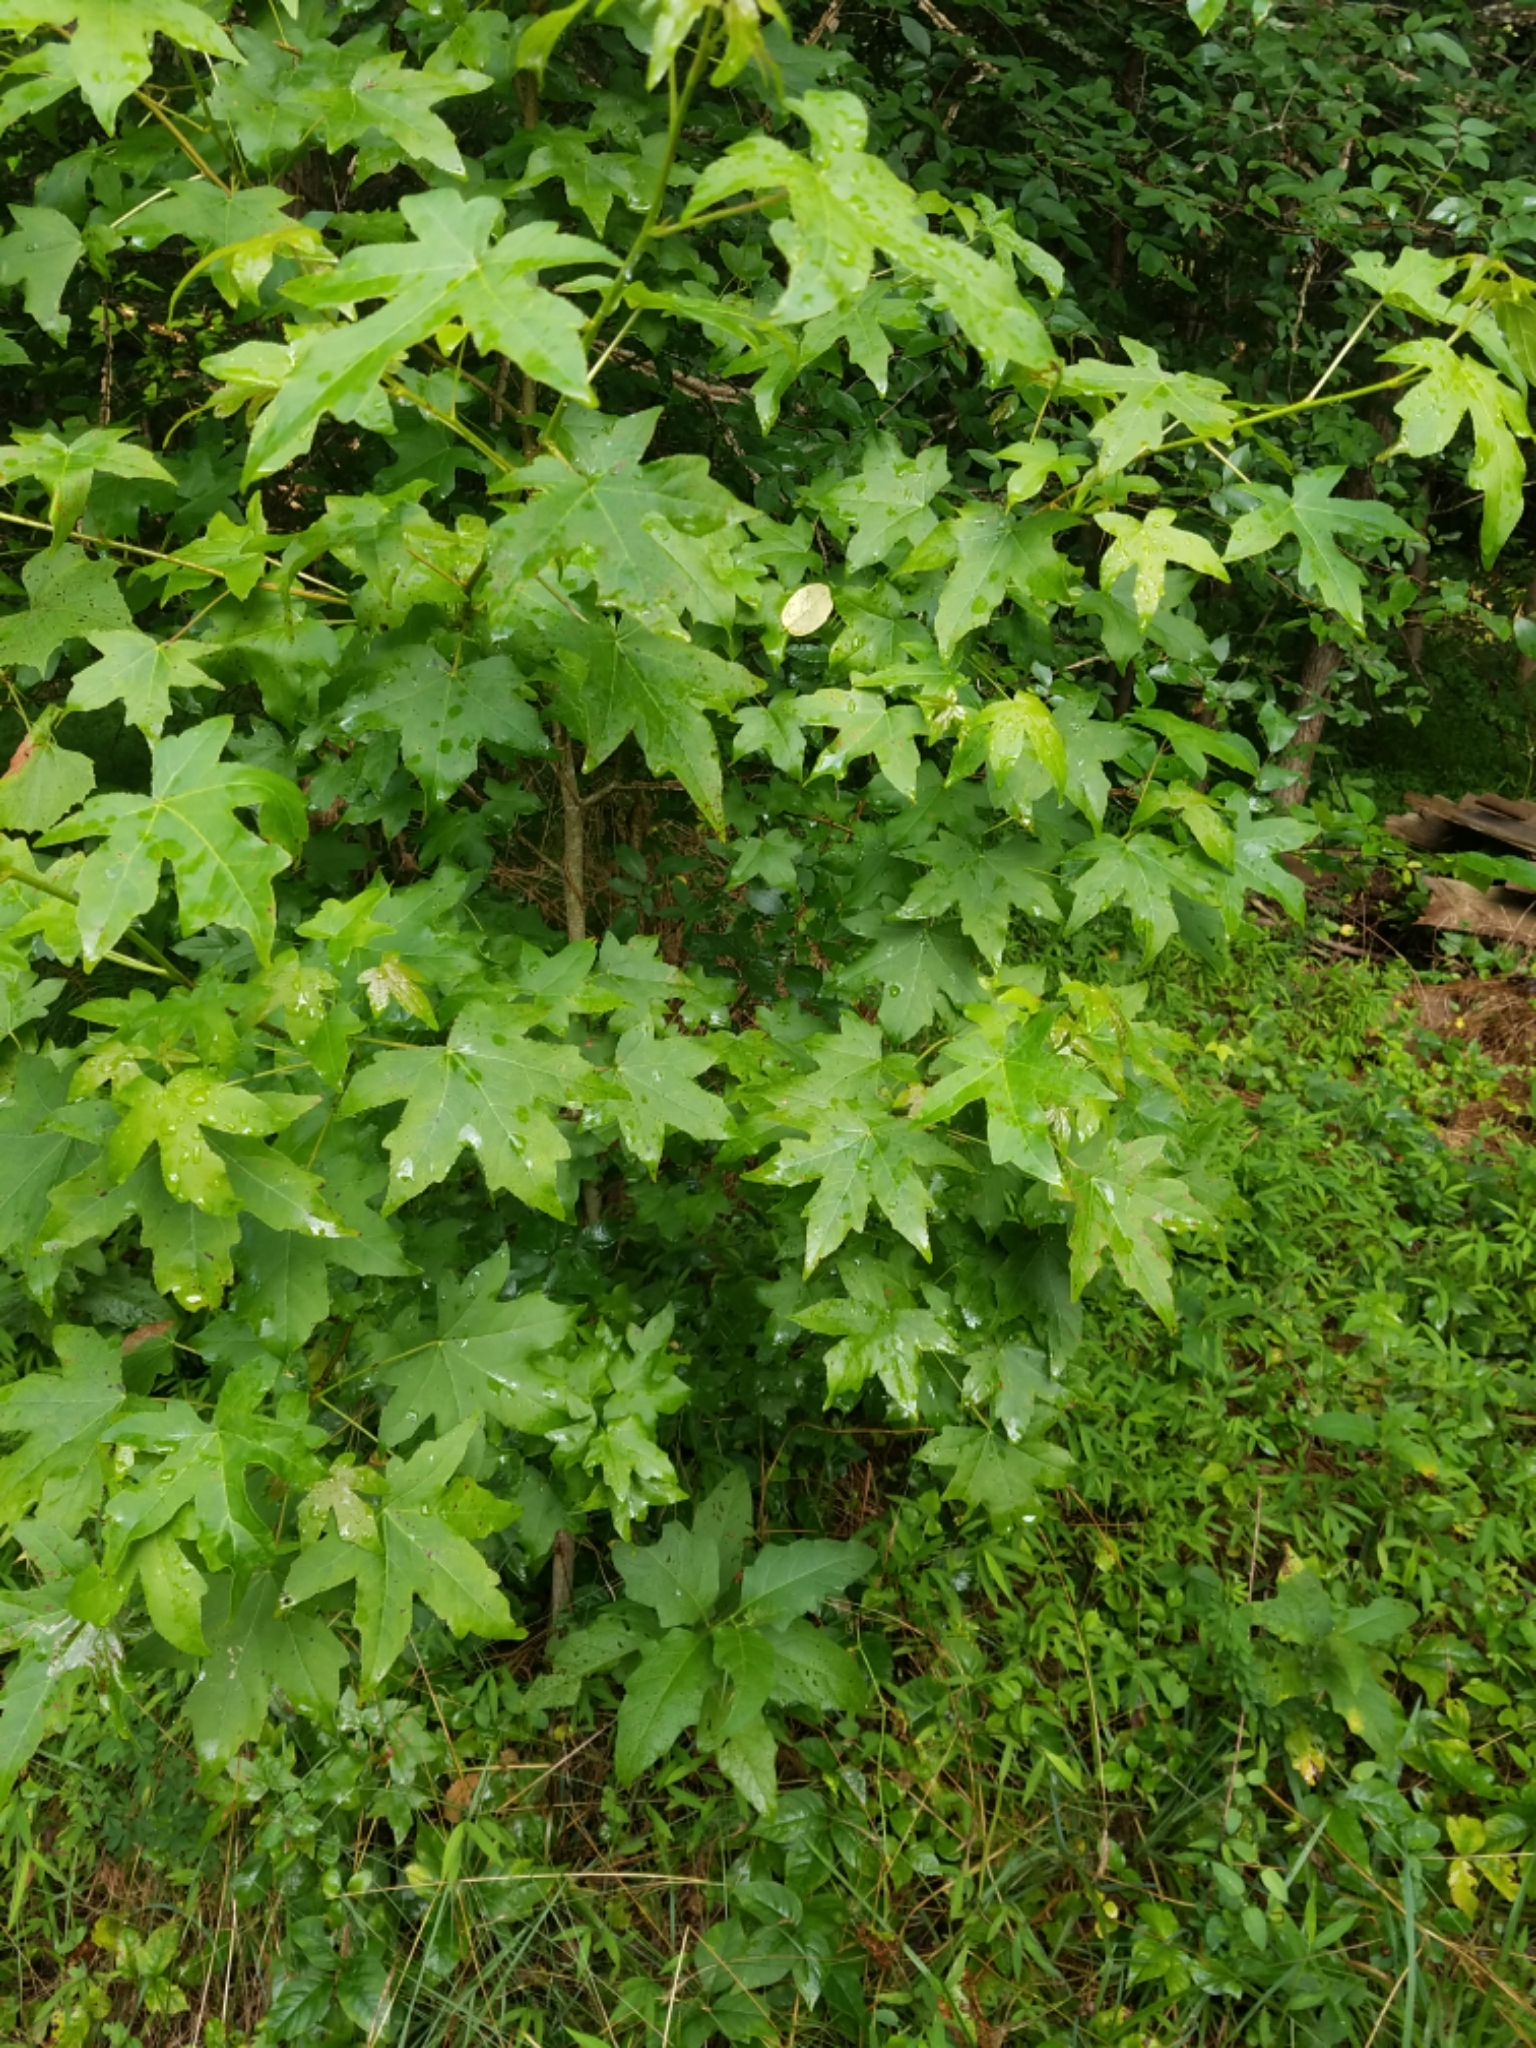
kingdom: Plantae
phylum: Tracheophyta
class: Magnoliopsida
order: Saxifragales
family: Altingiaceae
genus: Liquidambar
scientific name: Liquidambar styraciflua
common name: Sweet gum
